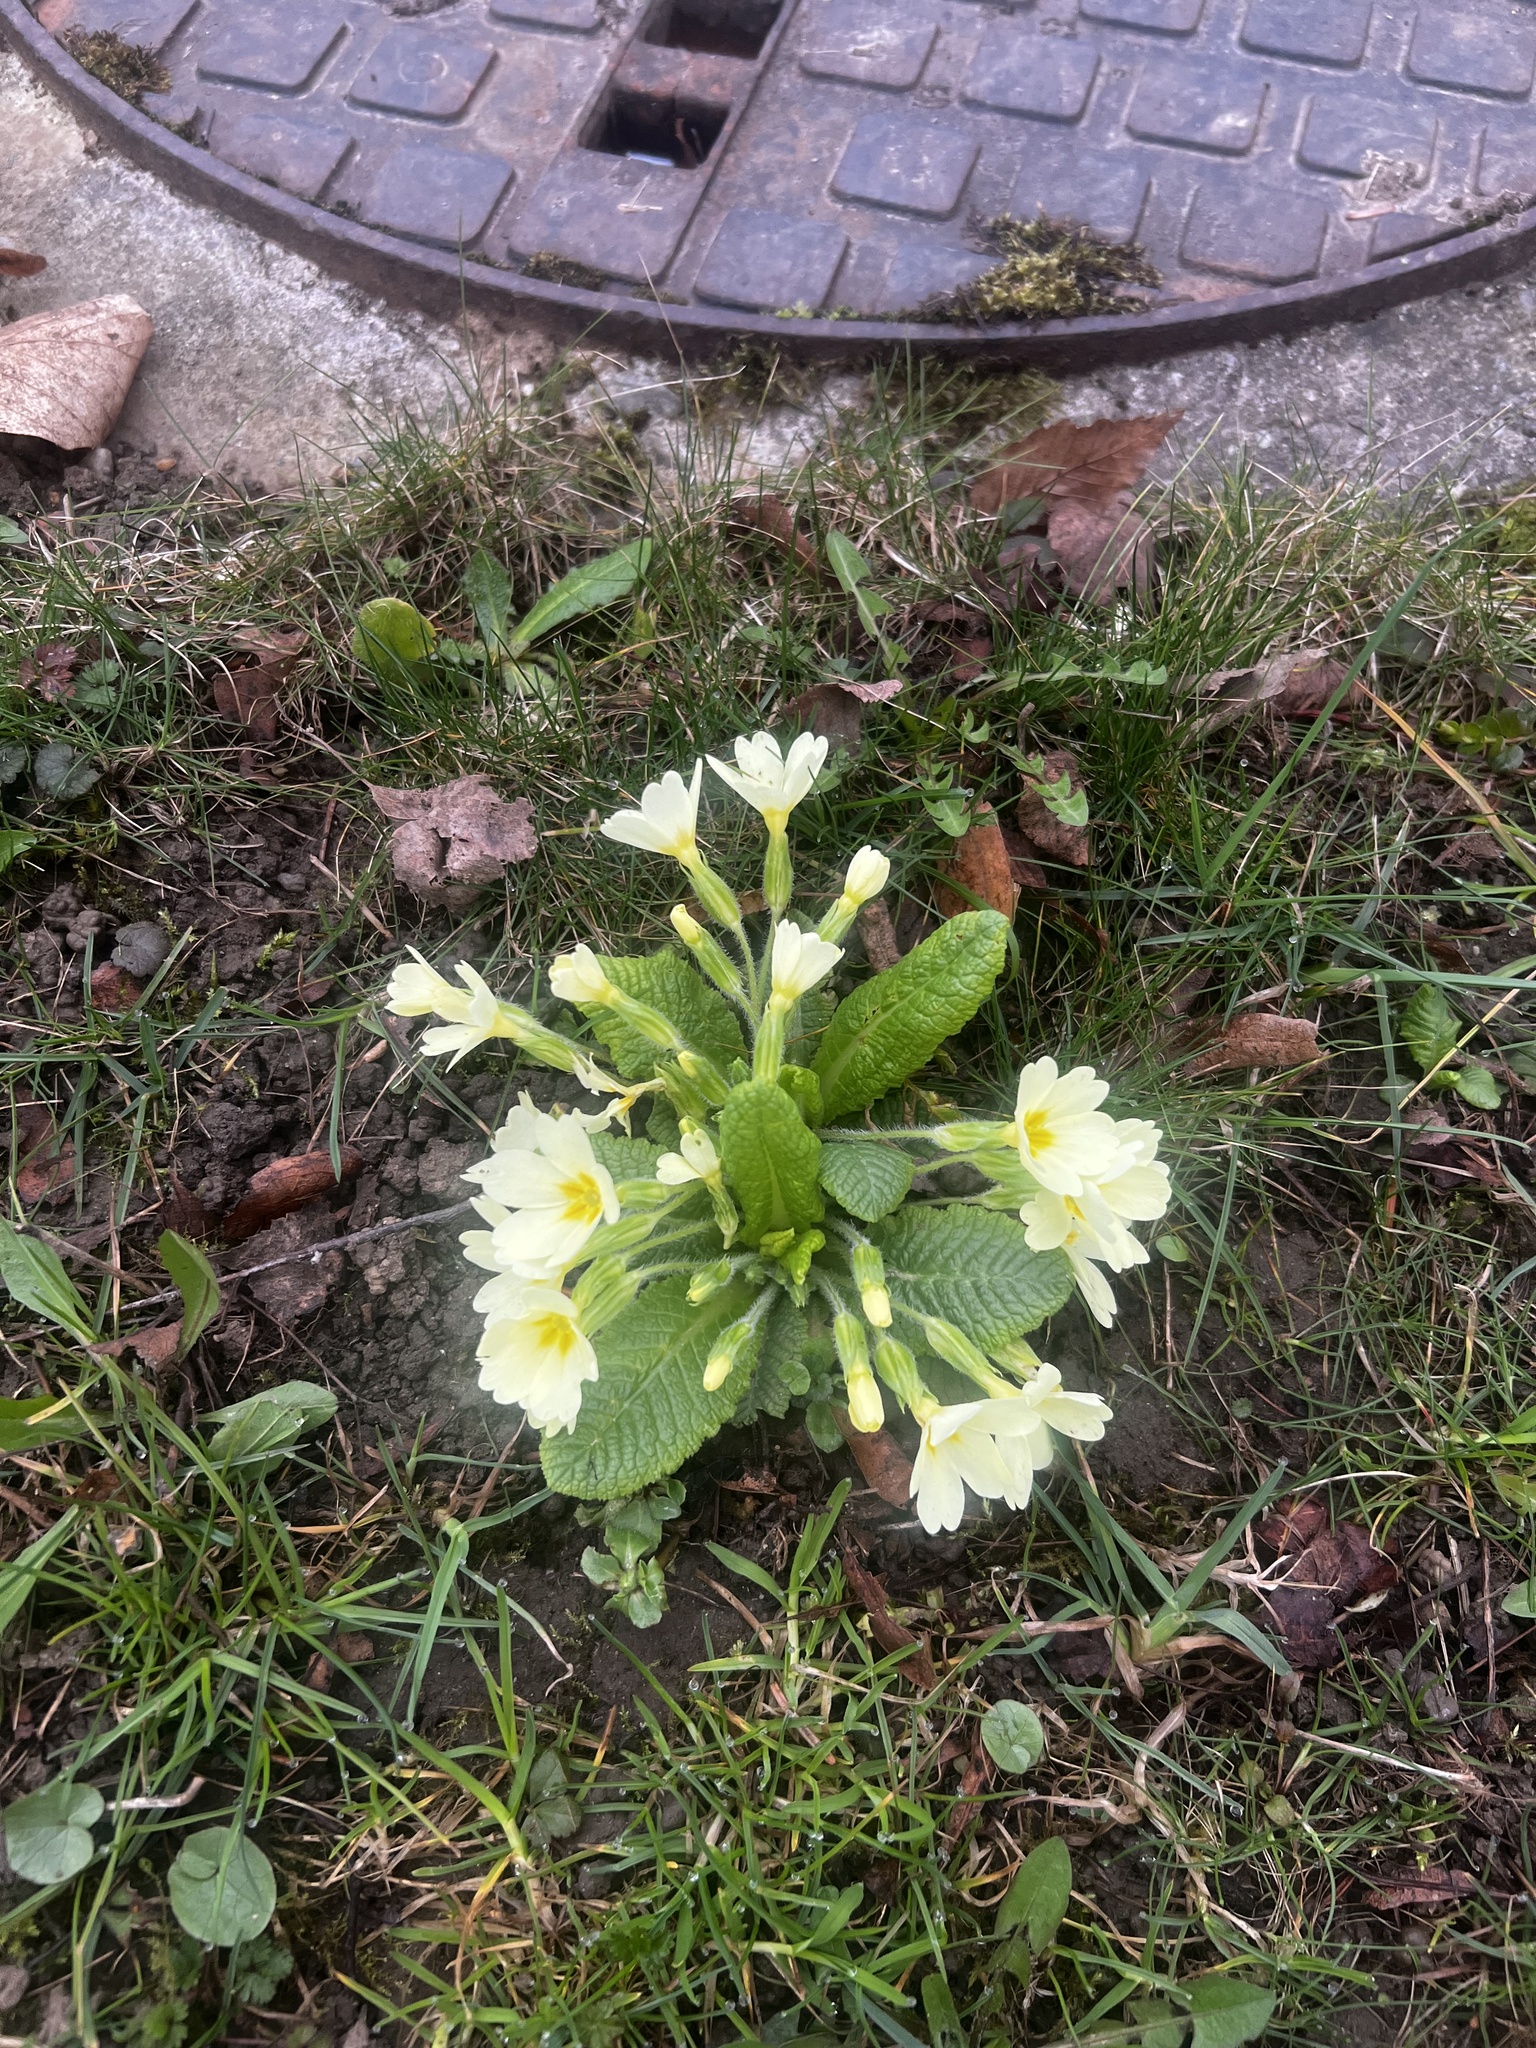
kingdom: Plantae
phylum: Tracheophyta
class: Magnoliopsida
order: Ericales
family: Primulaceae
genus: Primula
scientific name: Primula vulgaris
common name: Primrose
